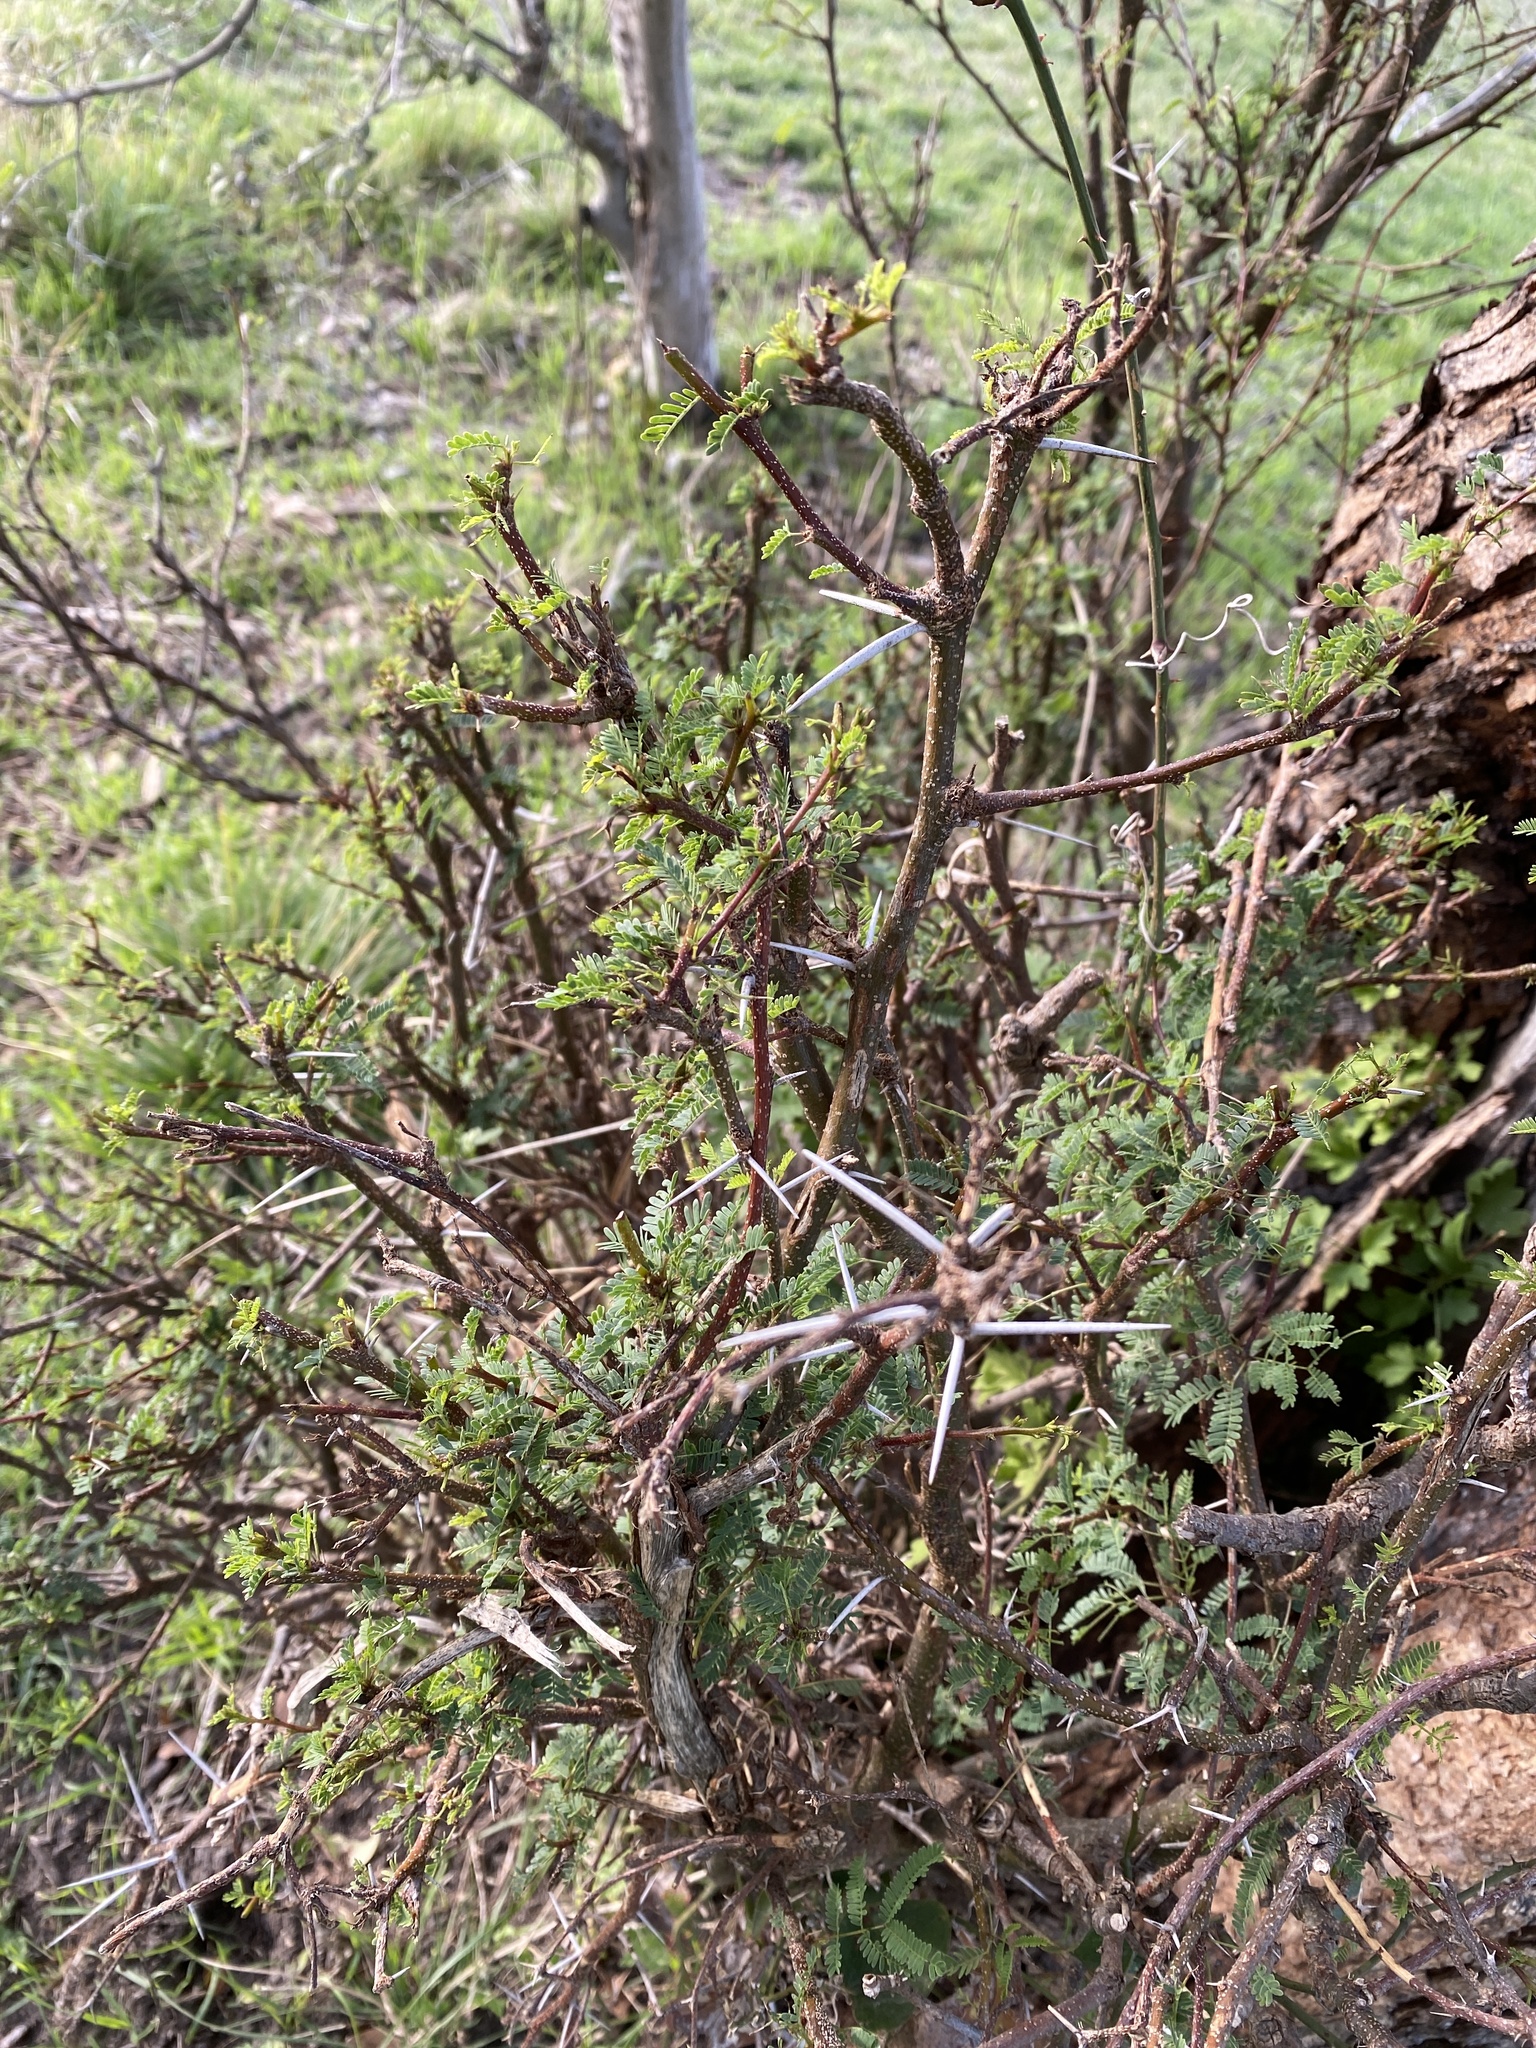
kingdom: Plantae
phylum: Tracheophyta
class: Magnoliopsida
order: Fabales
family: Fabaceae
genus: Vachellia
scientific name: Vachellia farnesiana
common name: Sweet acacia
